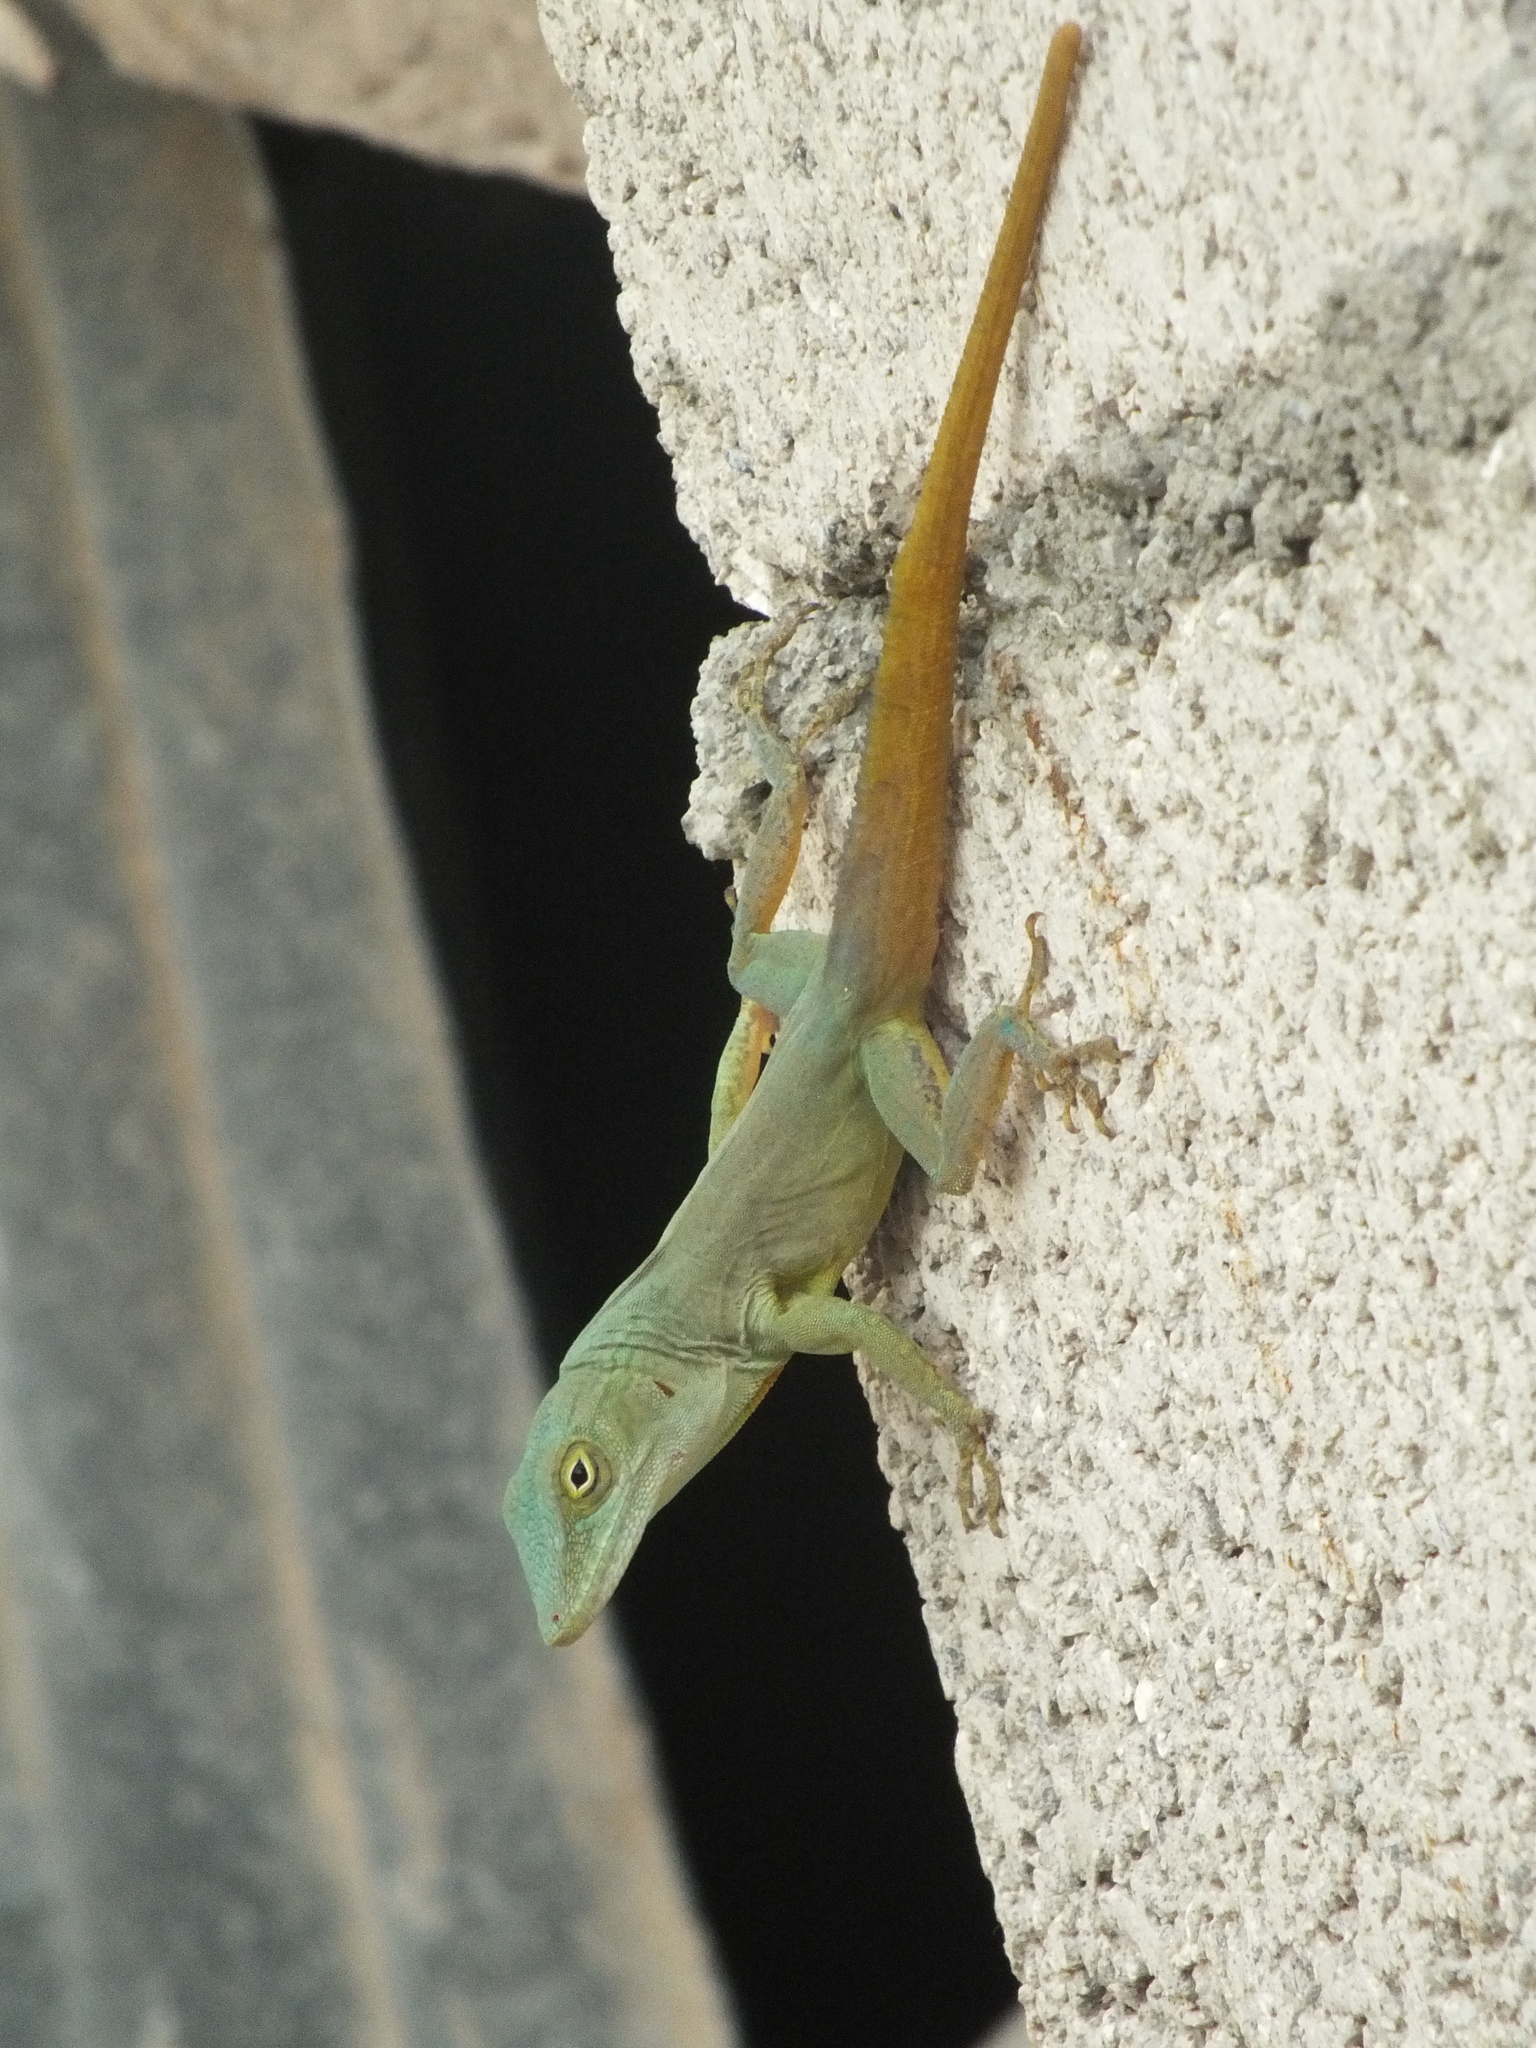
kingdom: Animalia
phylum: Chordata
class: Squamata
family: Dactyloidae
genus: Anolis
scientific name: Anolis grahami
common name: Graham's anole
